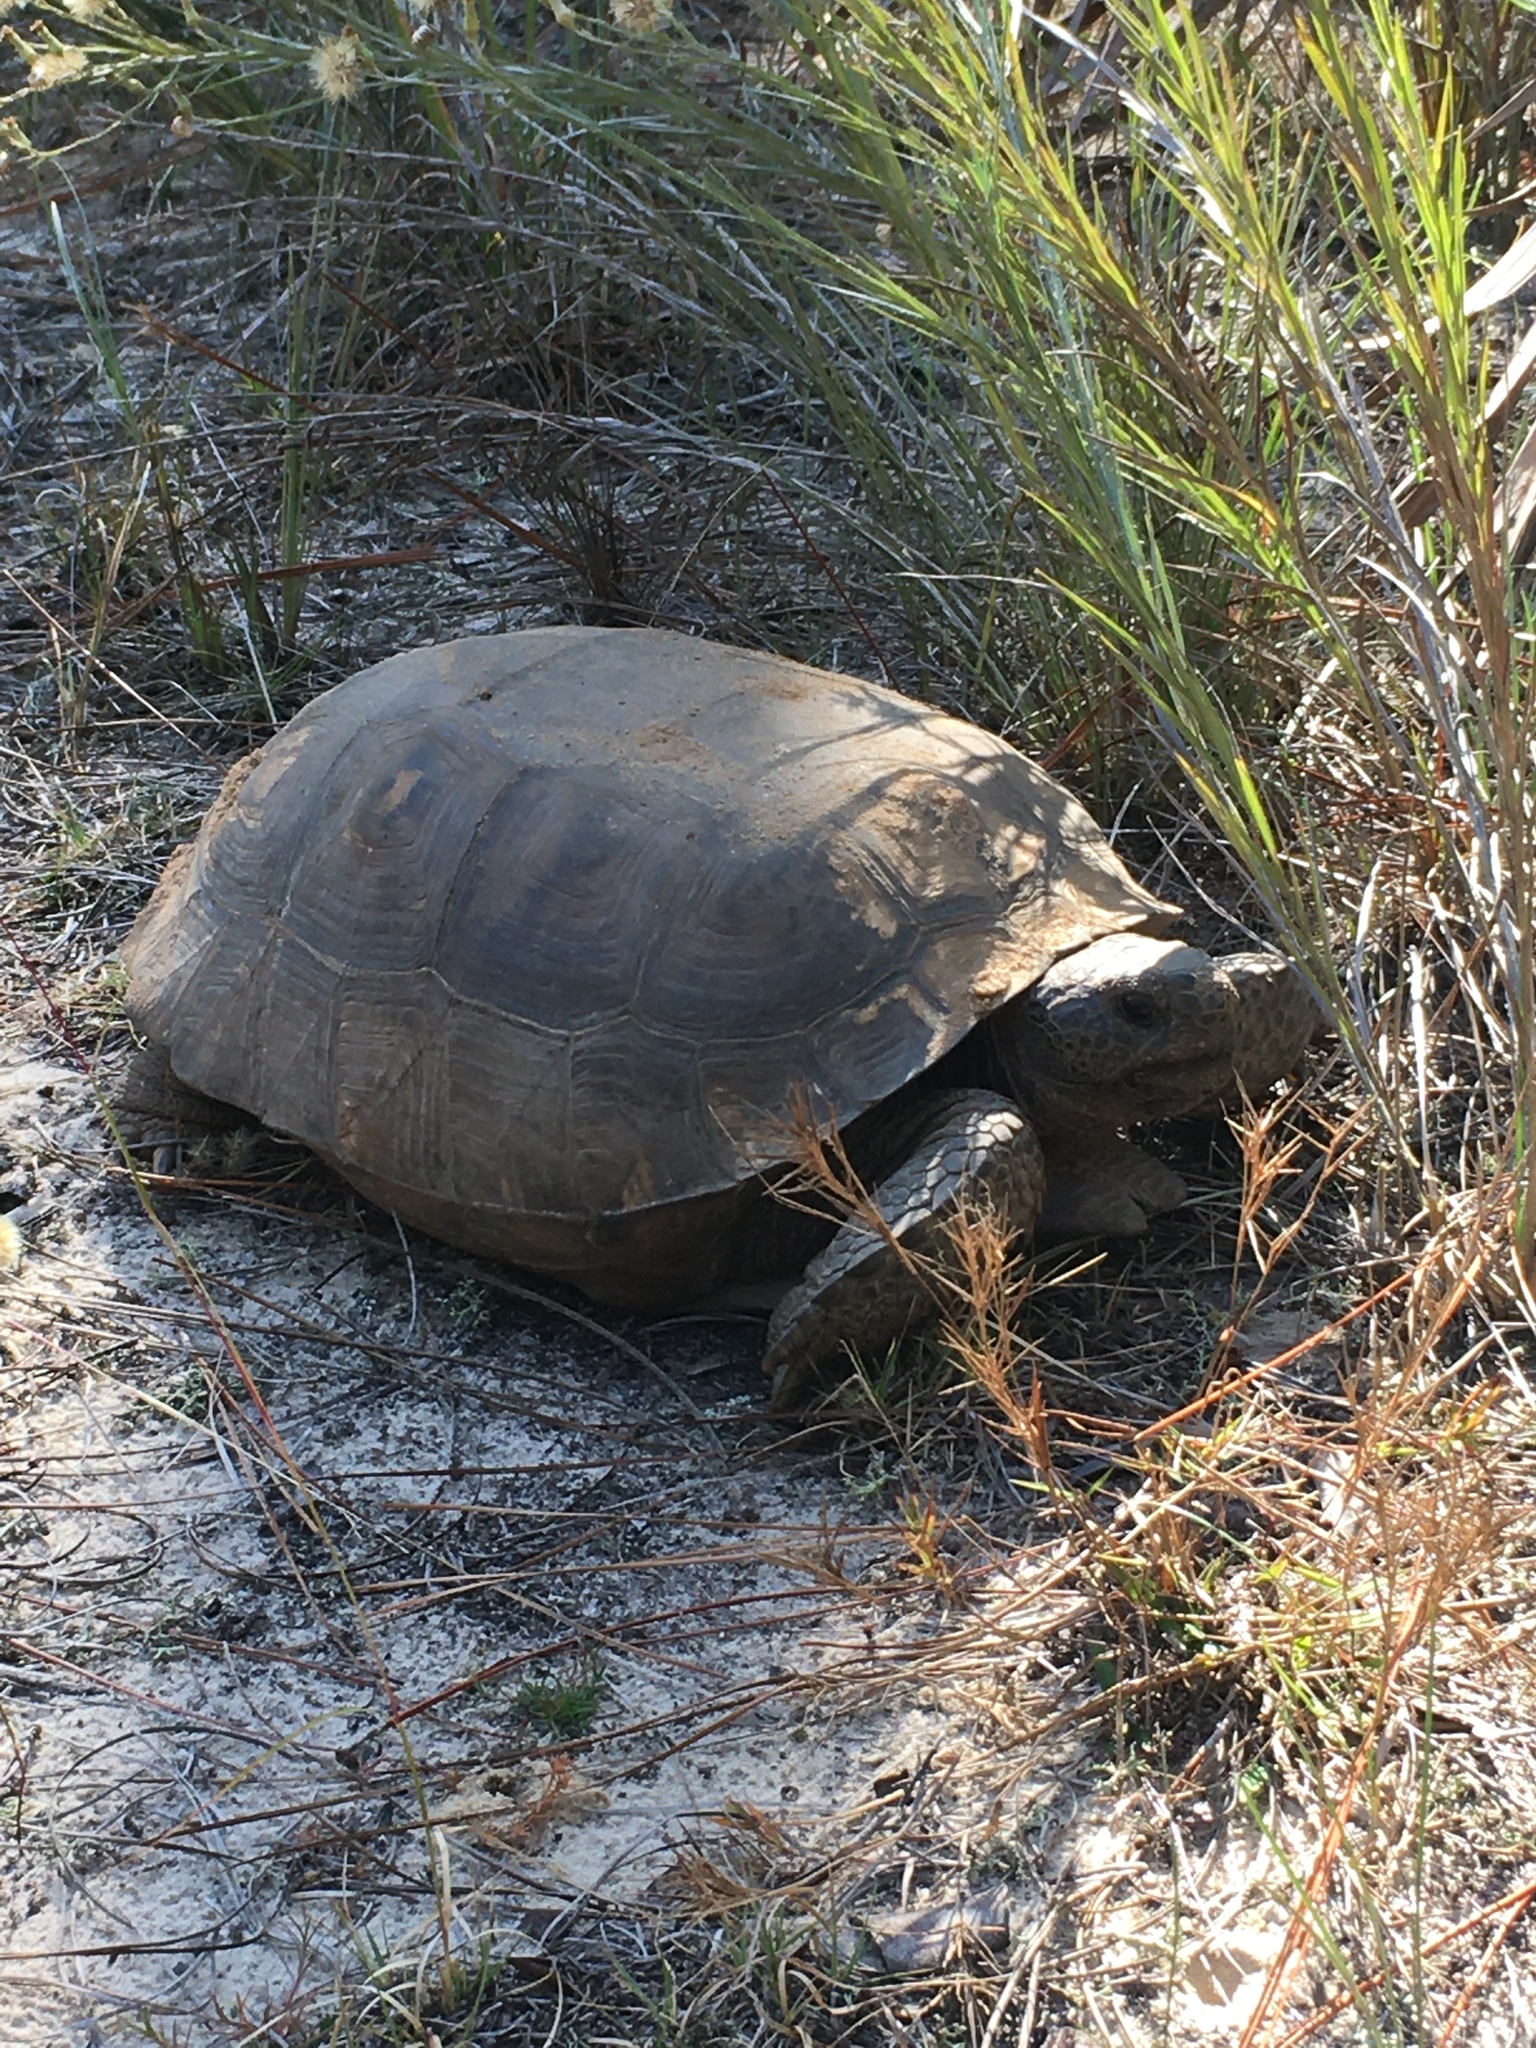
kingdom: Animalia
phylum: Chordata
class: Testudines
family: Testudinidae
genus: Gopherus
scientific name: Gopherus polyphemus
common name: Florida gopher tortoise
